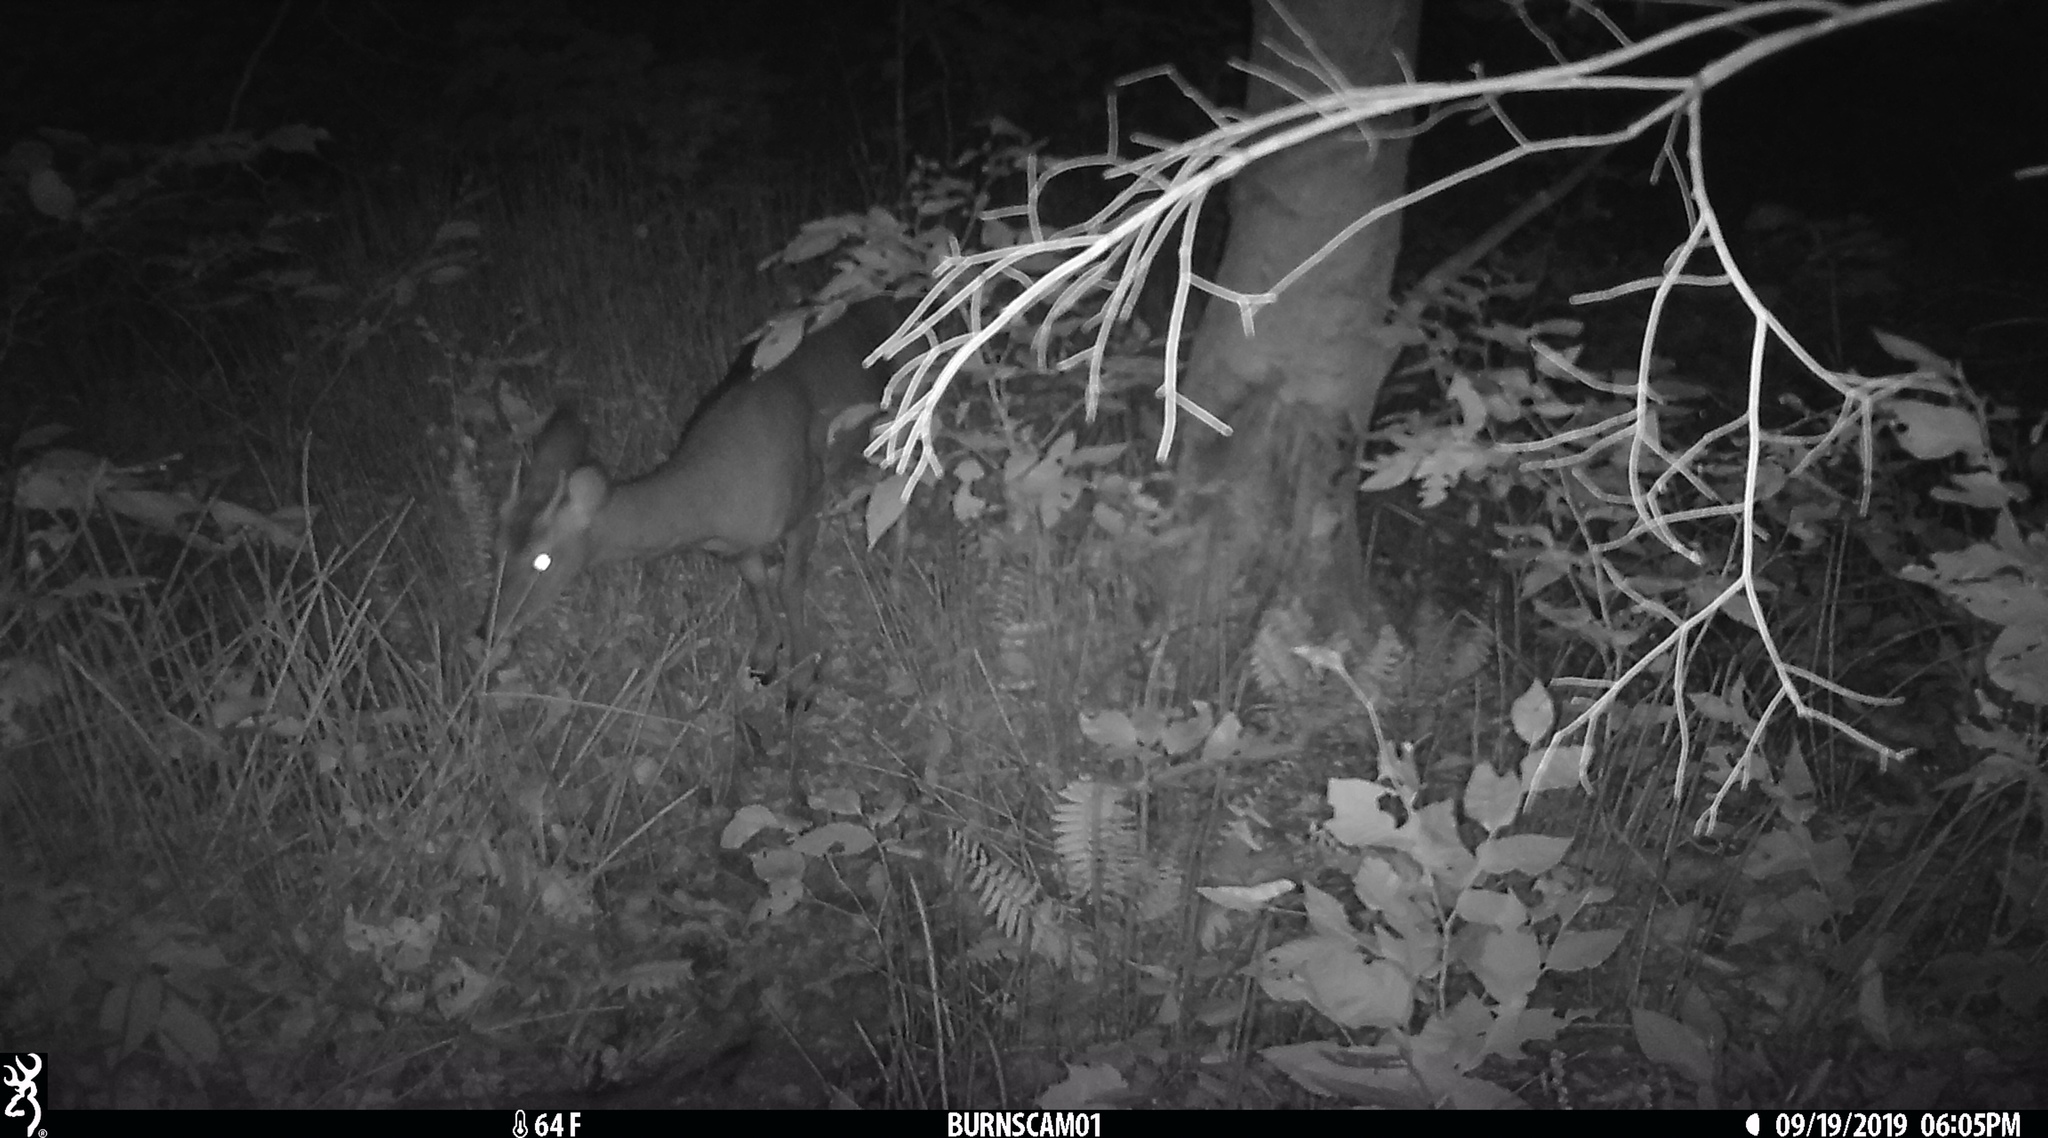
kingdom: Animalia
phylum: Chordata
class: Mammalia
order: Artiodactyla
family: Cervidae
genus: Odocoileus
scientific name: Odocoileus virginianus
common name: White-tailed deer
